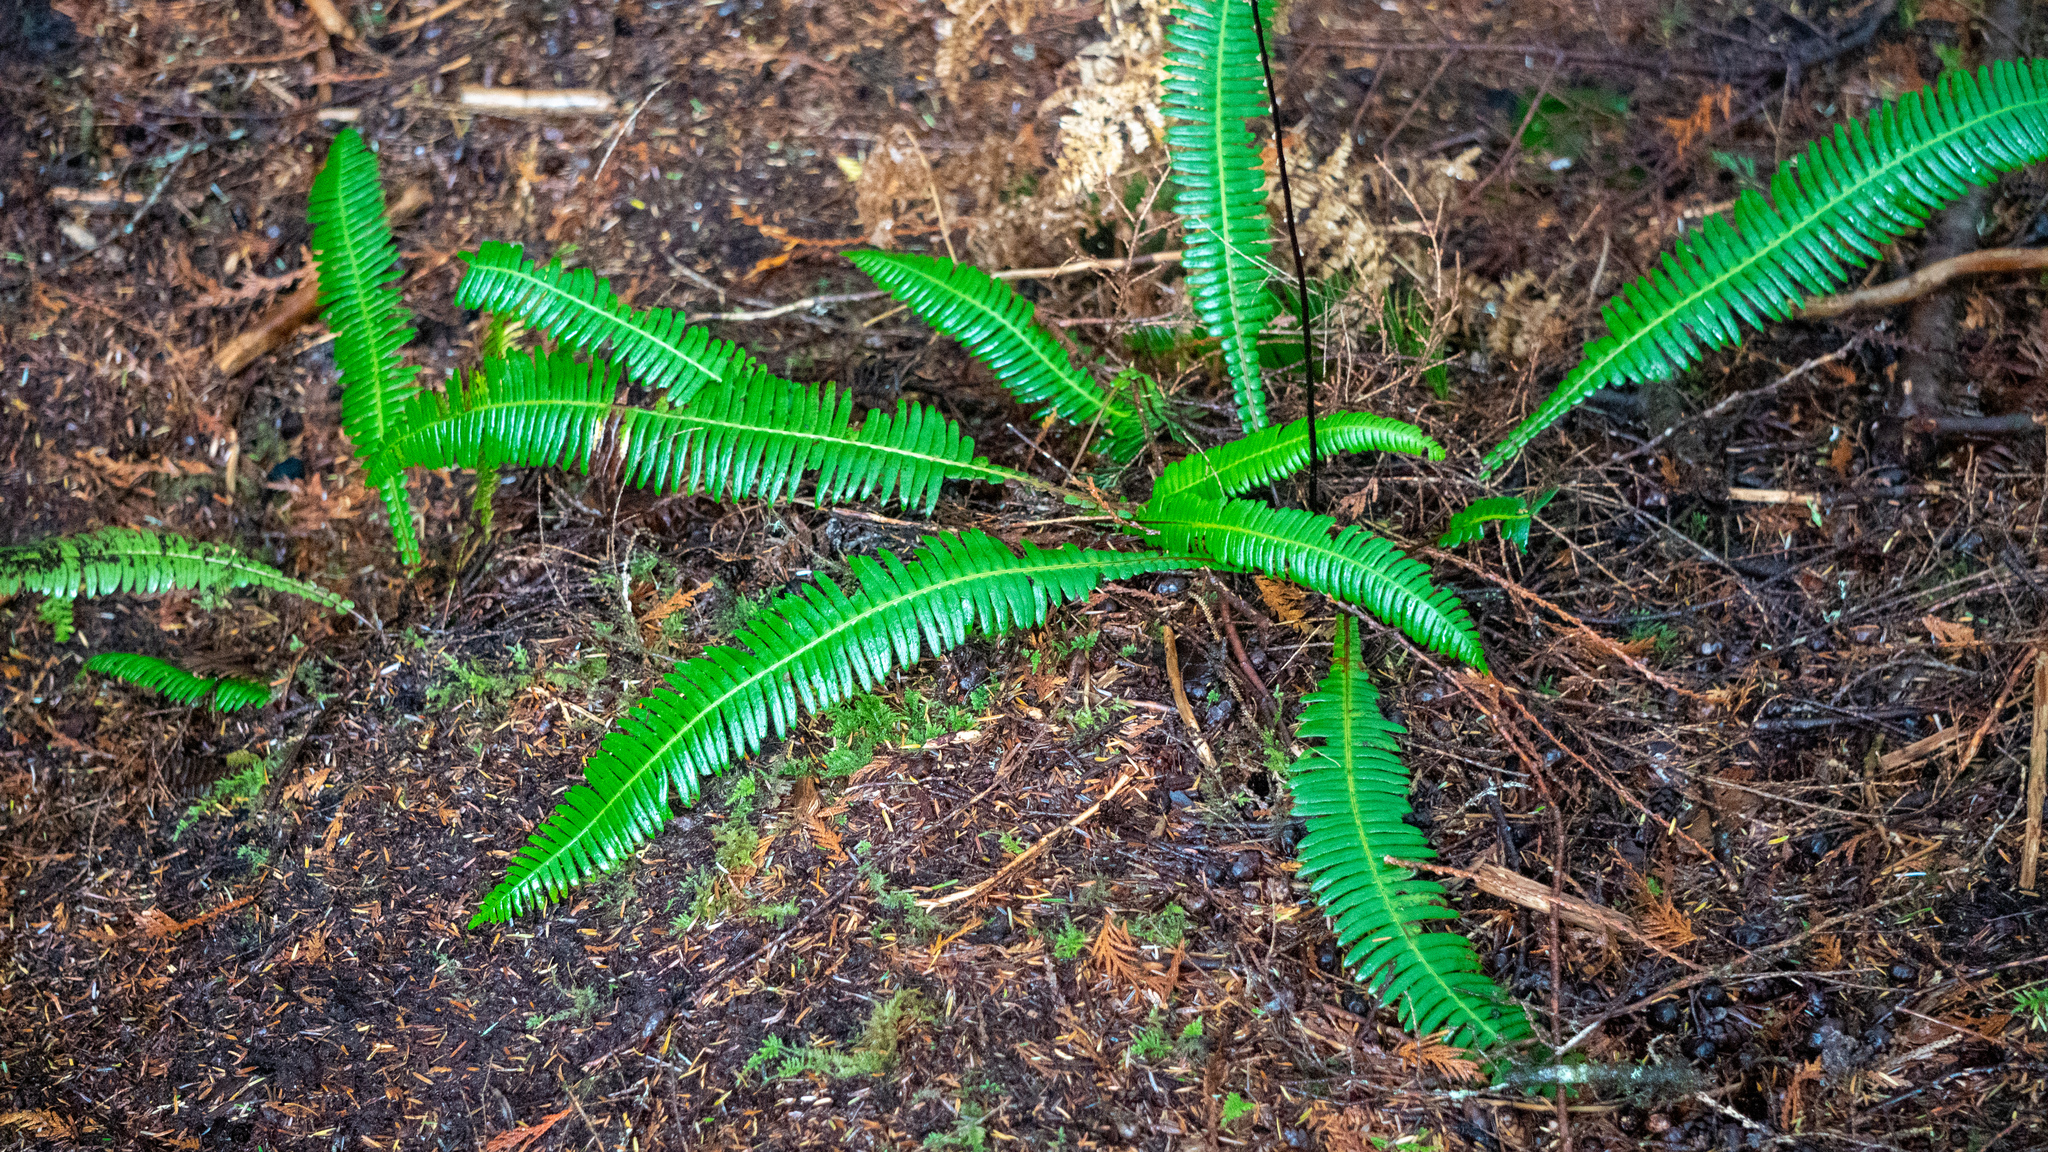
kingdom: Plantae
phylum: Tracheophyta
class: Polypodiopsida
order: Polypodiales
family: Blechnaceae
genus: Struthiopteris
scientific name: Struthiopteris spicant
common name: Deer fern
